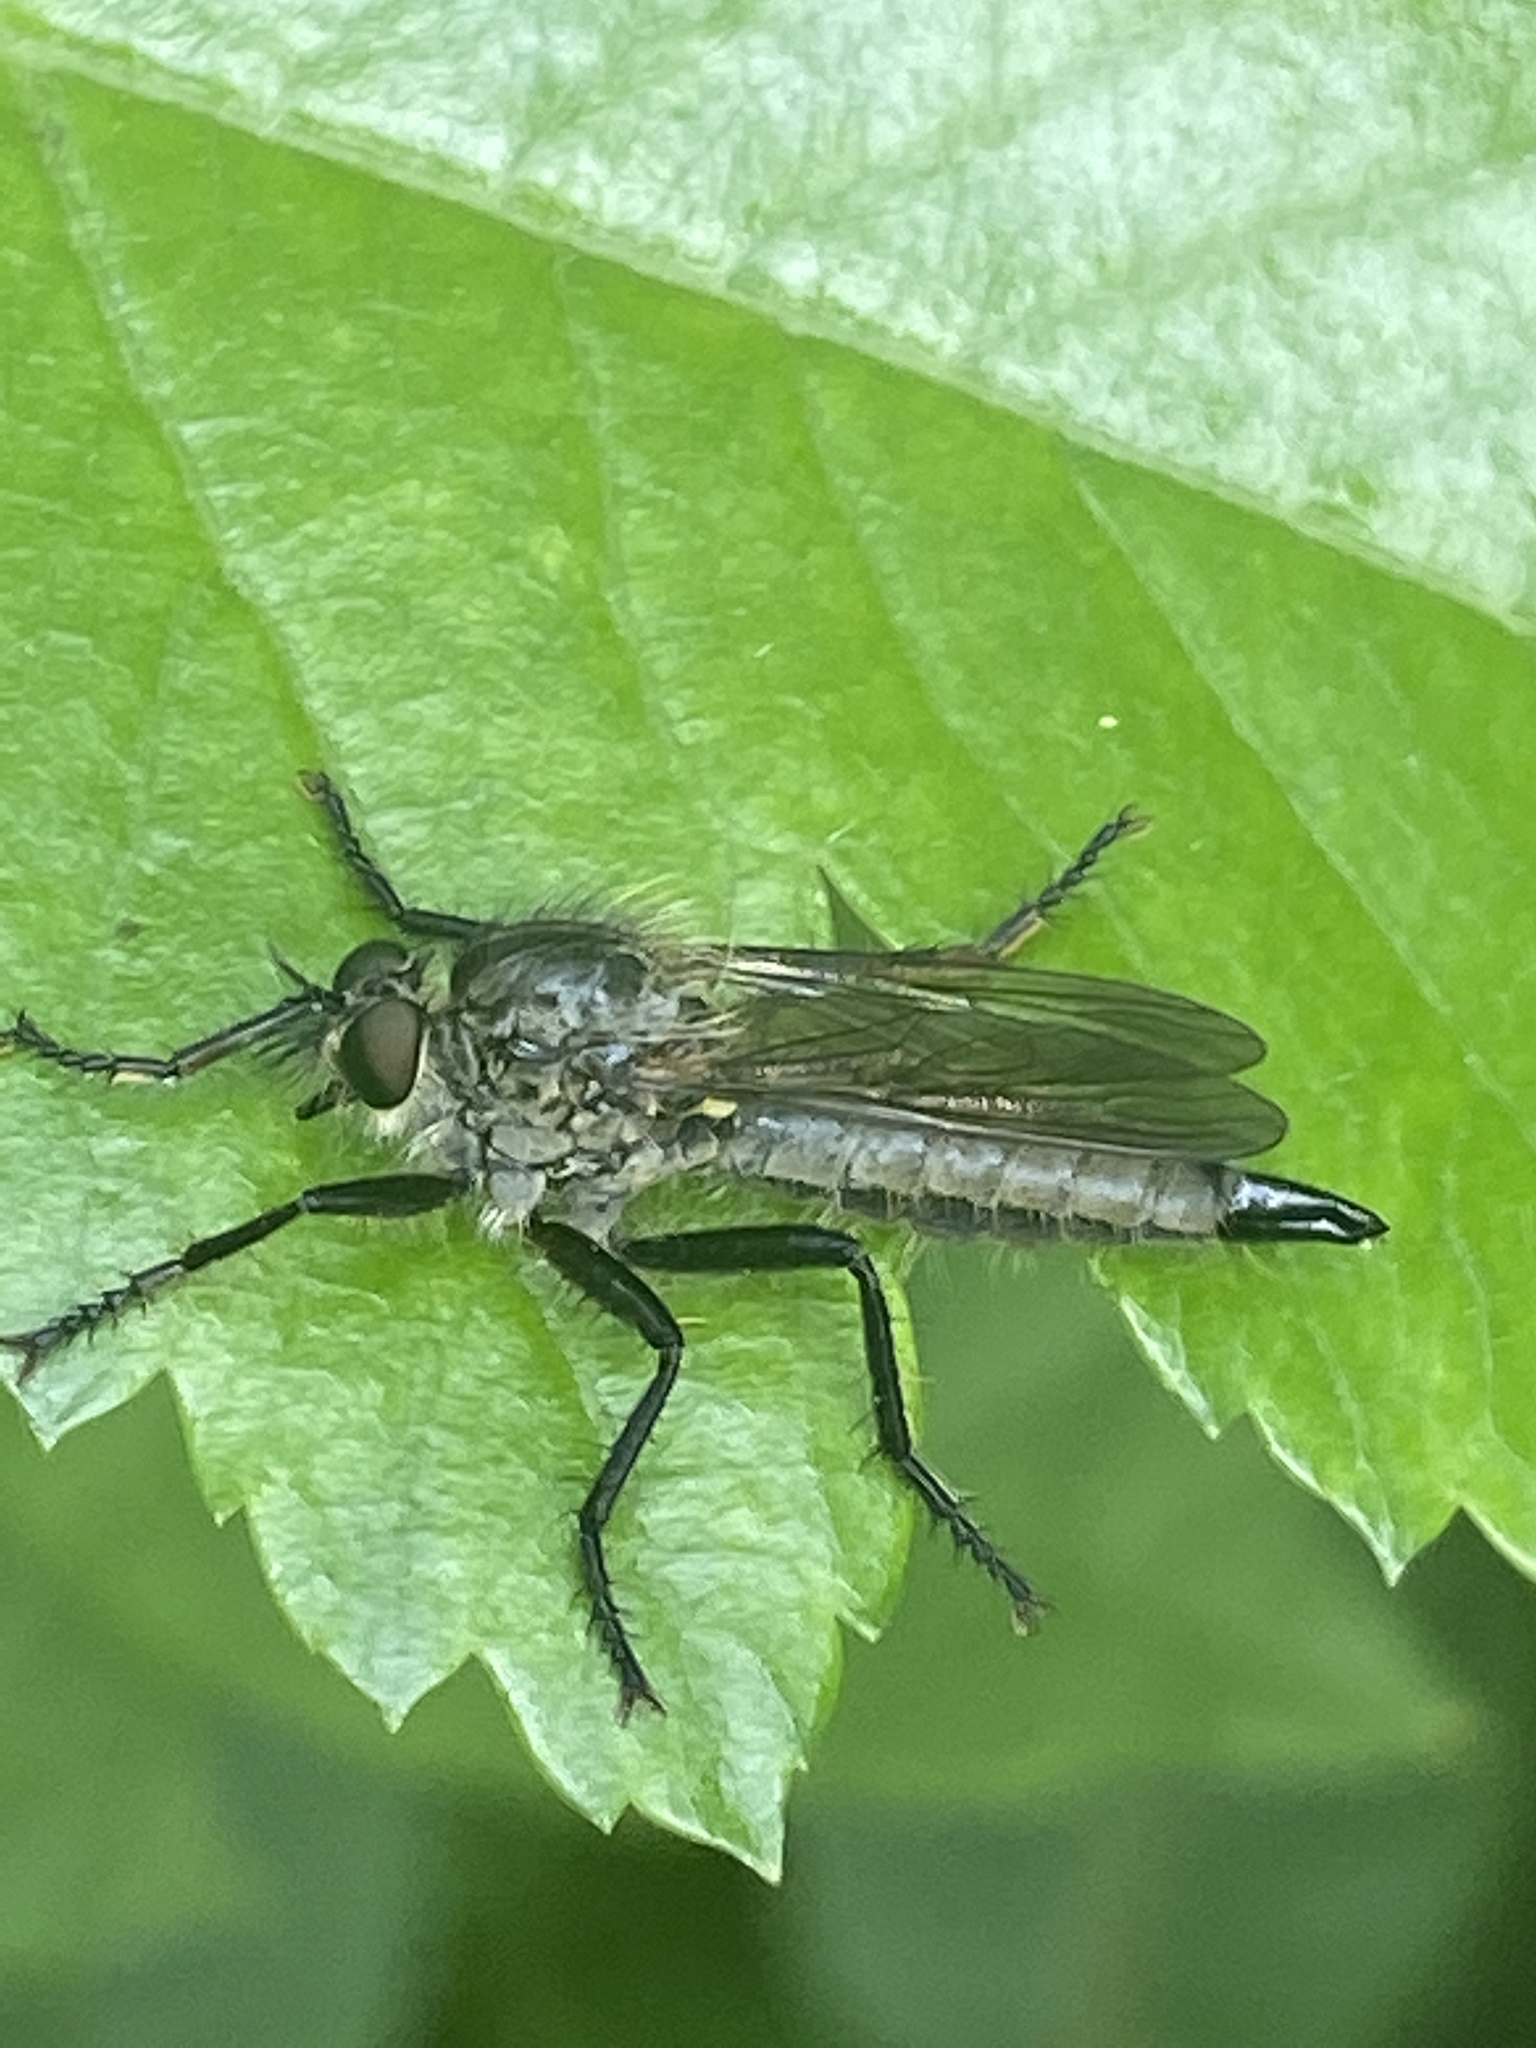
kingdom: Animalia
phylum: Arthropoda
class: Insecta
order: Diptera
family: Asilidae
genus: Didysmachus
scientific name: Didysmachus picipes
